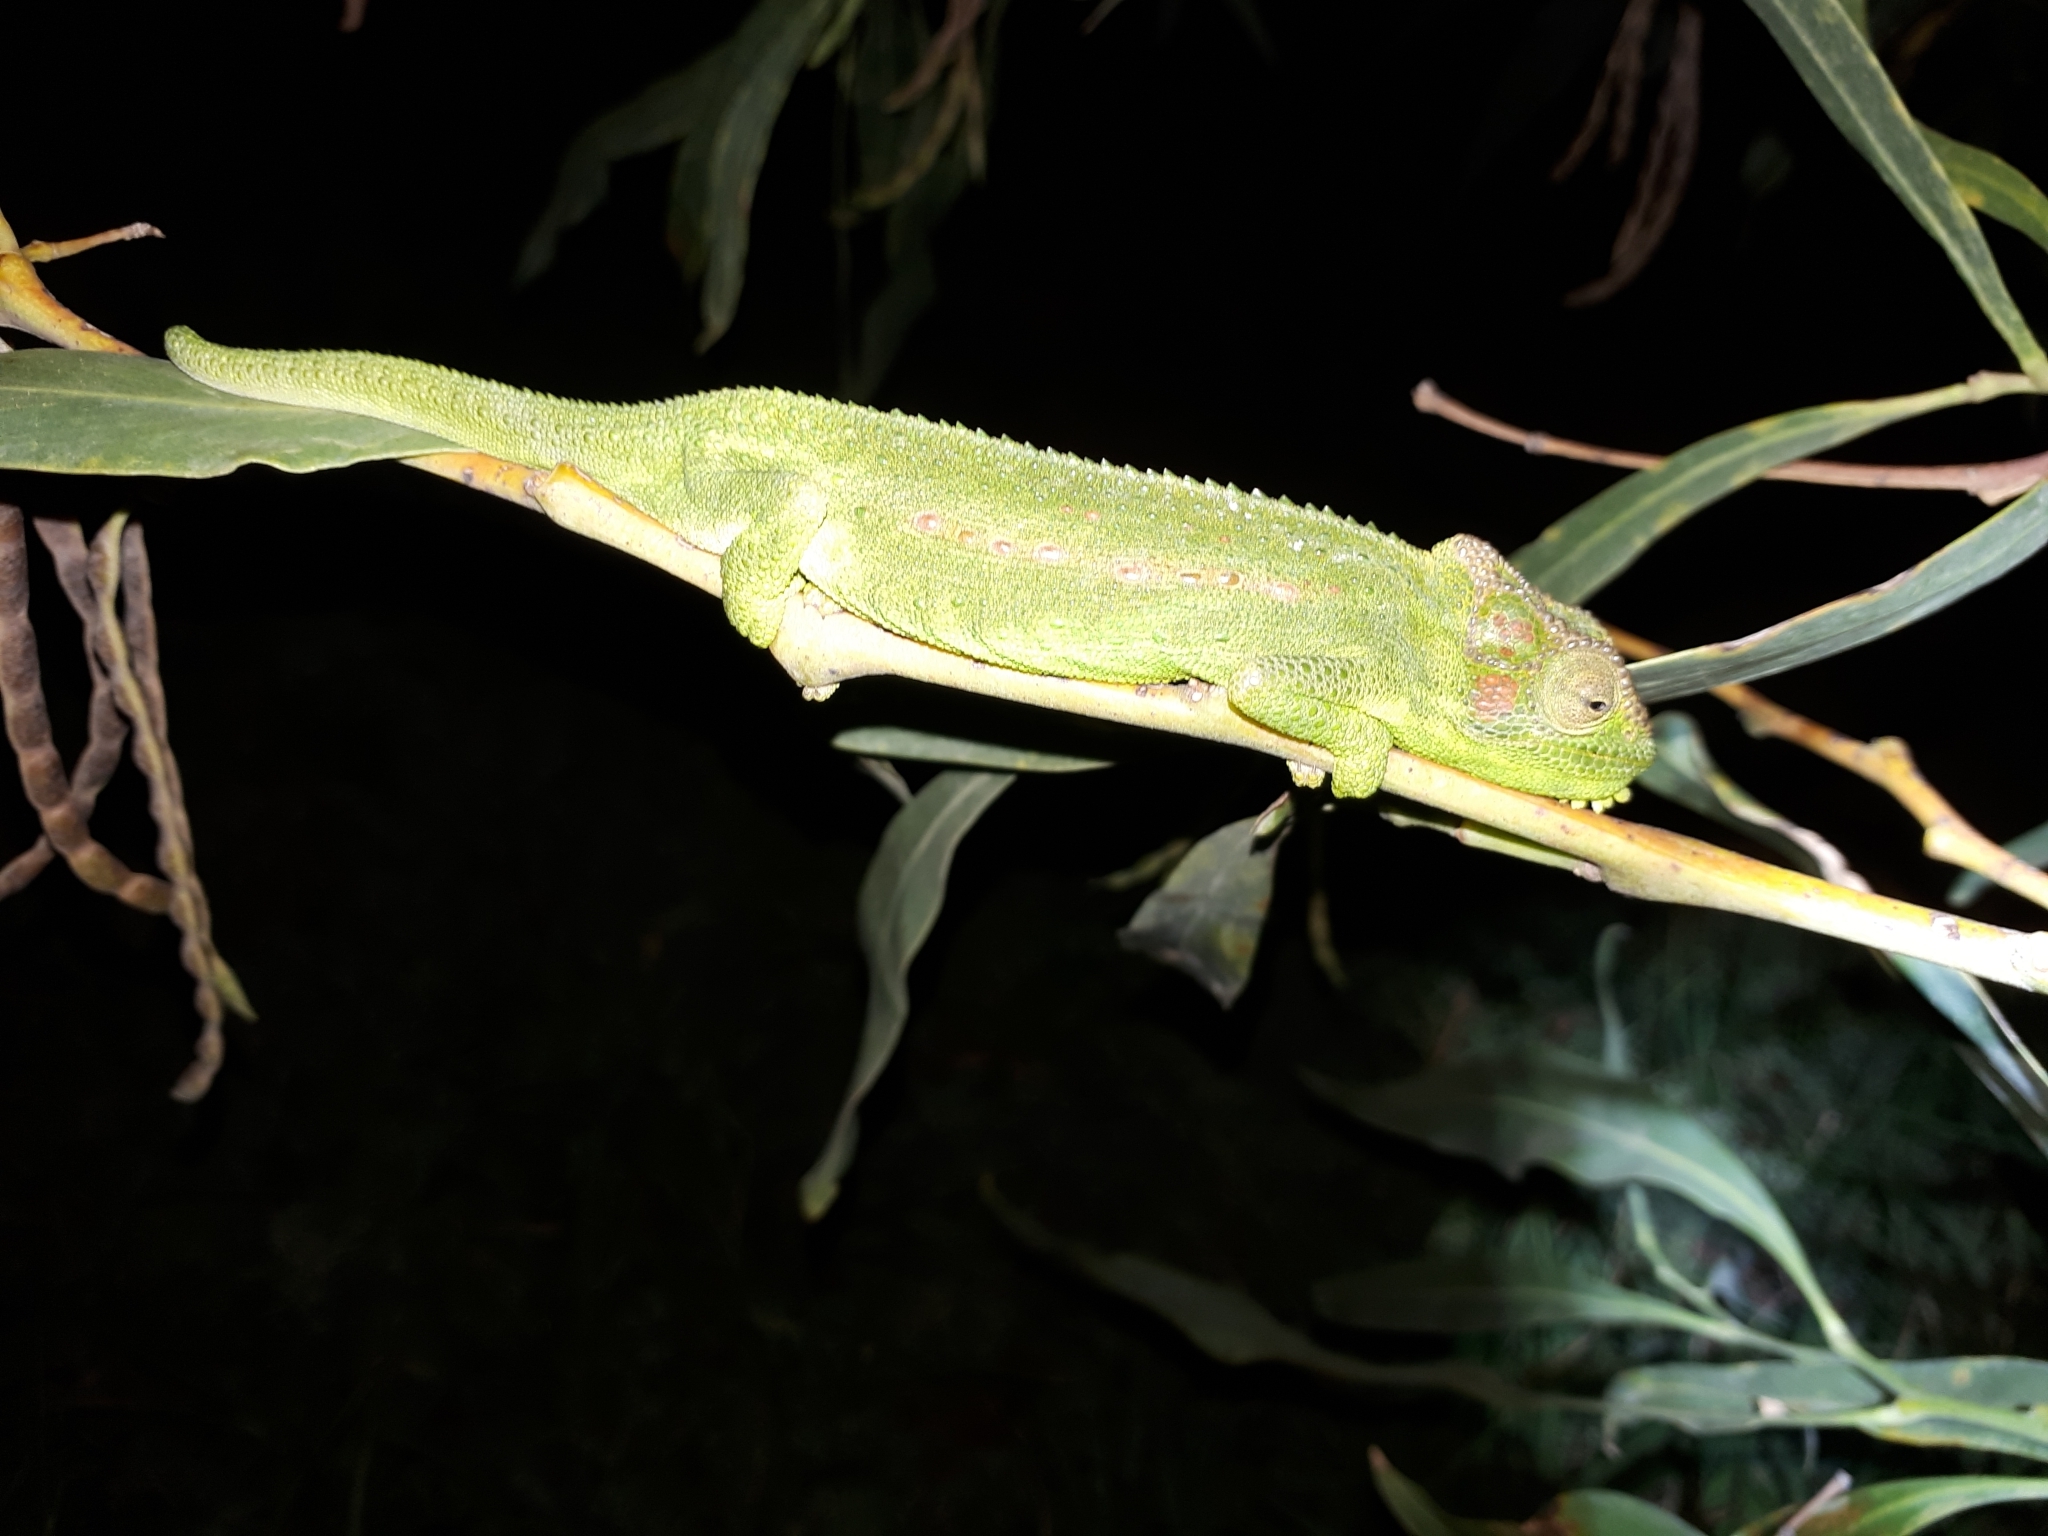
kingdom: Animalia
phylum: Chordata
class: Squamata
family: Chamaeleonidae
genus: Bradypodion
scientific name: Bradypodion pumilum
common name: Cape dwarf chameleon
